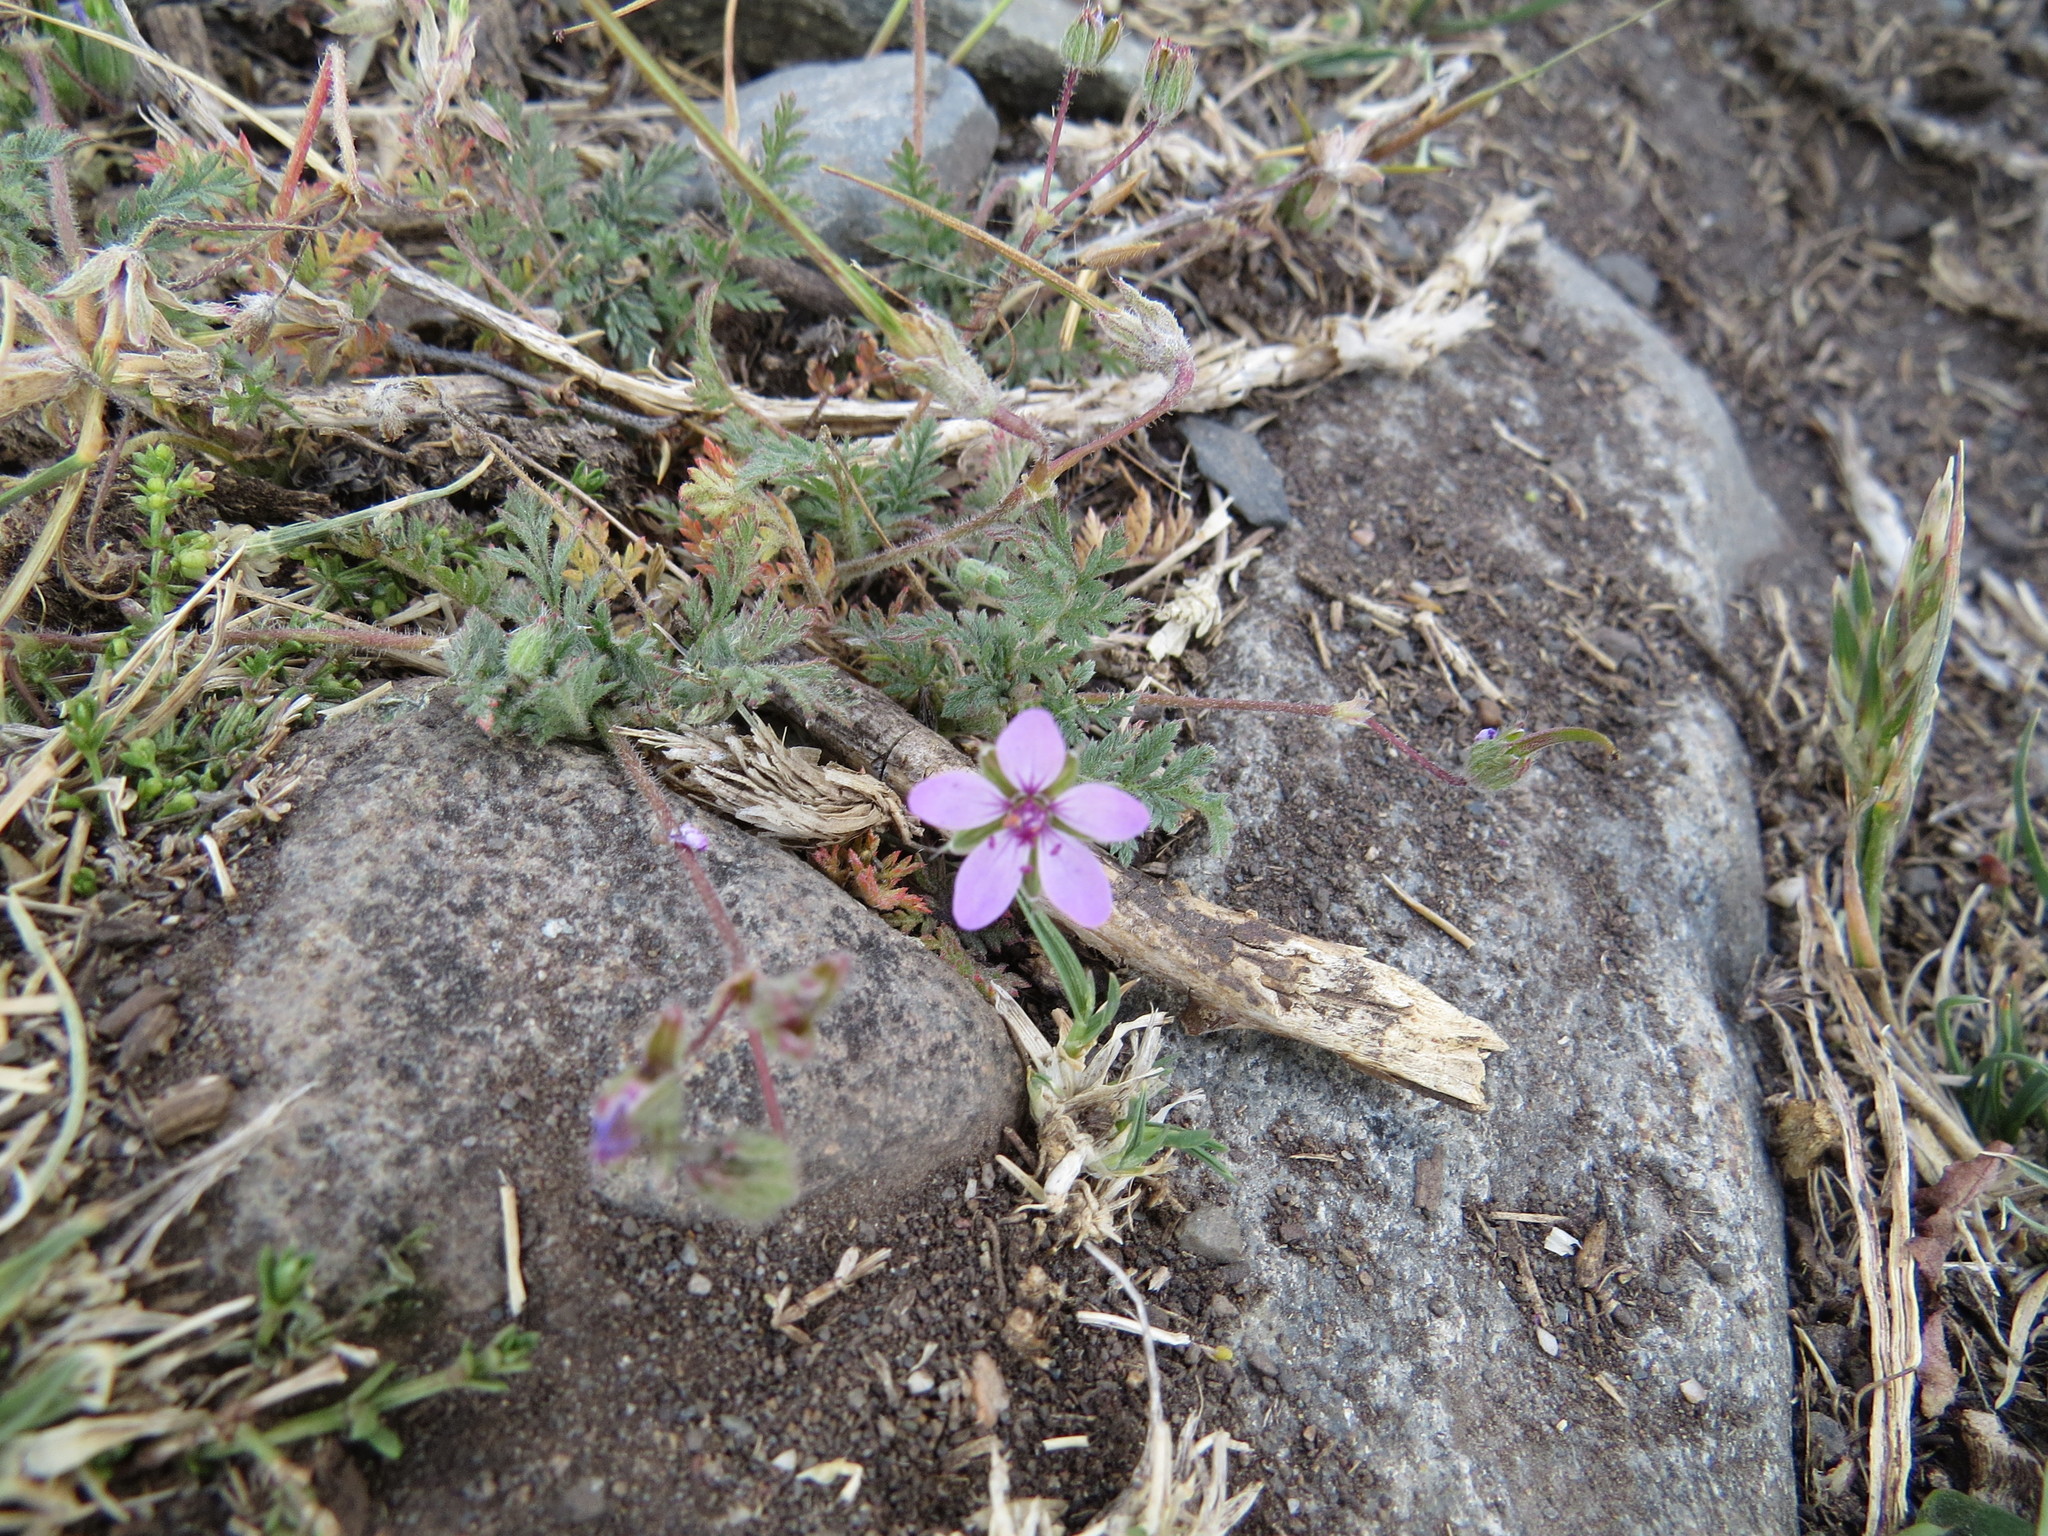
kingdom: Plantae
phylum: Tracheophyta
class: Magnoliopsida
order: Geraniales
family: Geraniaceae
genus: Erodium
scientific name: Erodium cicutarium
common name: Common stork's-bill
